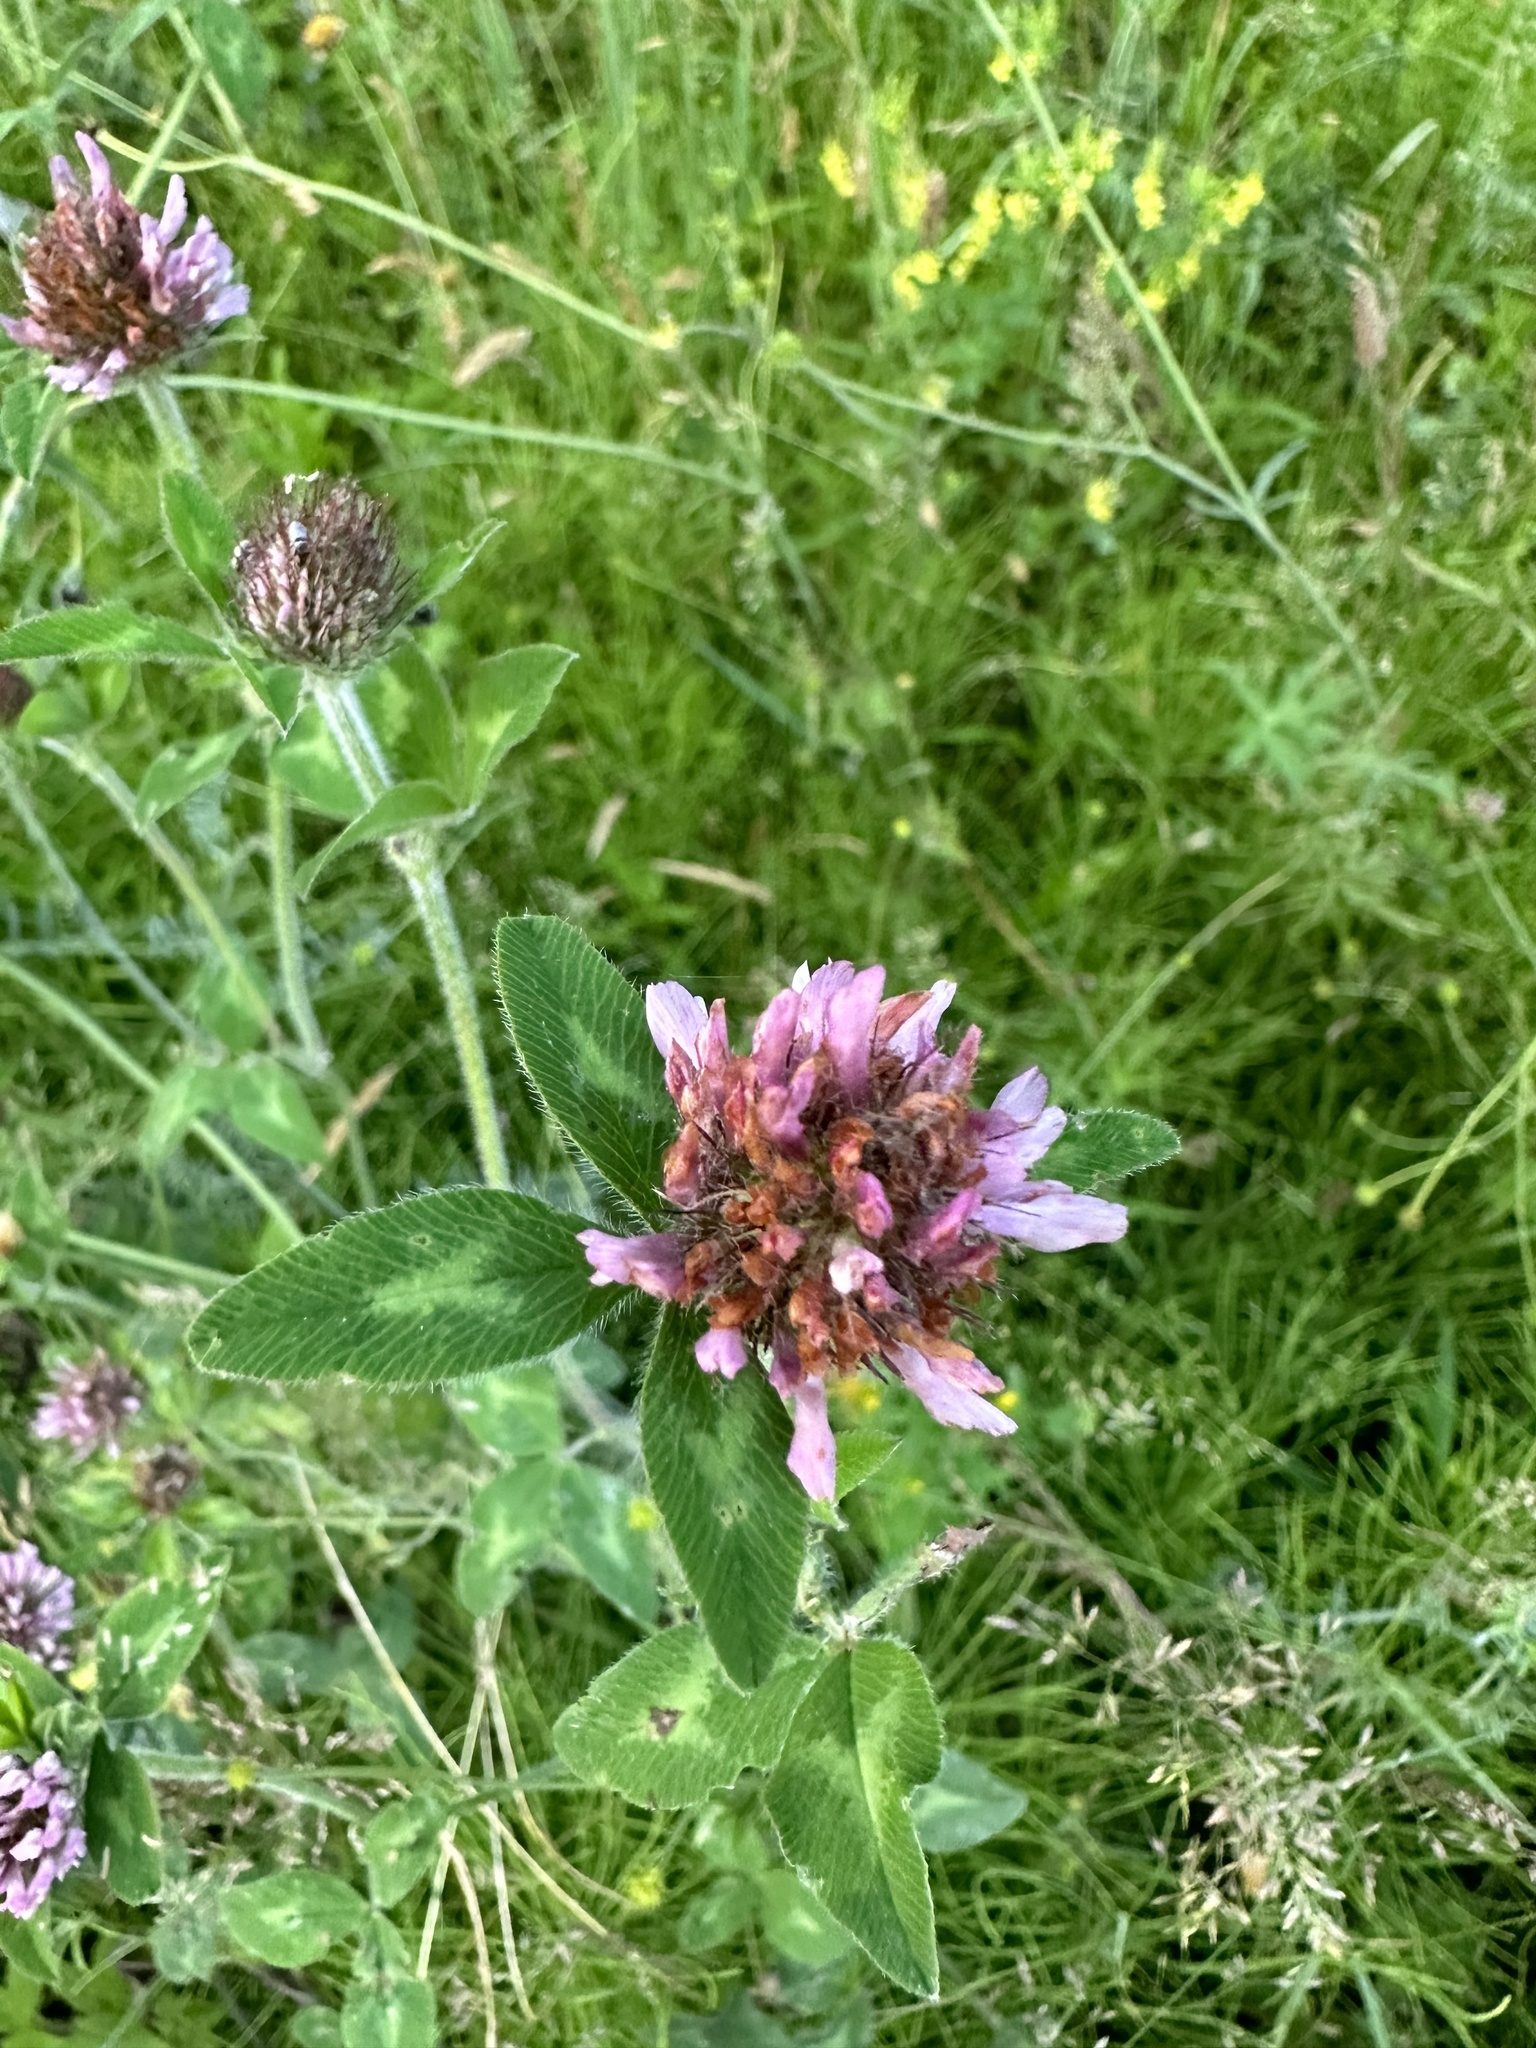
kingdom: Plantae
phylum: Tracheophyta
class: Magnoliopsida
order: Fabales
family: Fabaceae
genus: Trifolium
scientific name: Trifolium pratense
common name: Red clover
